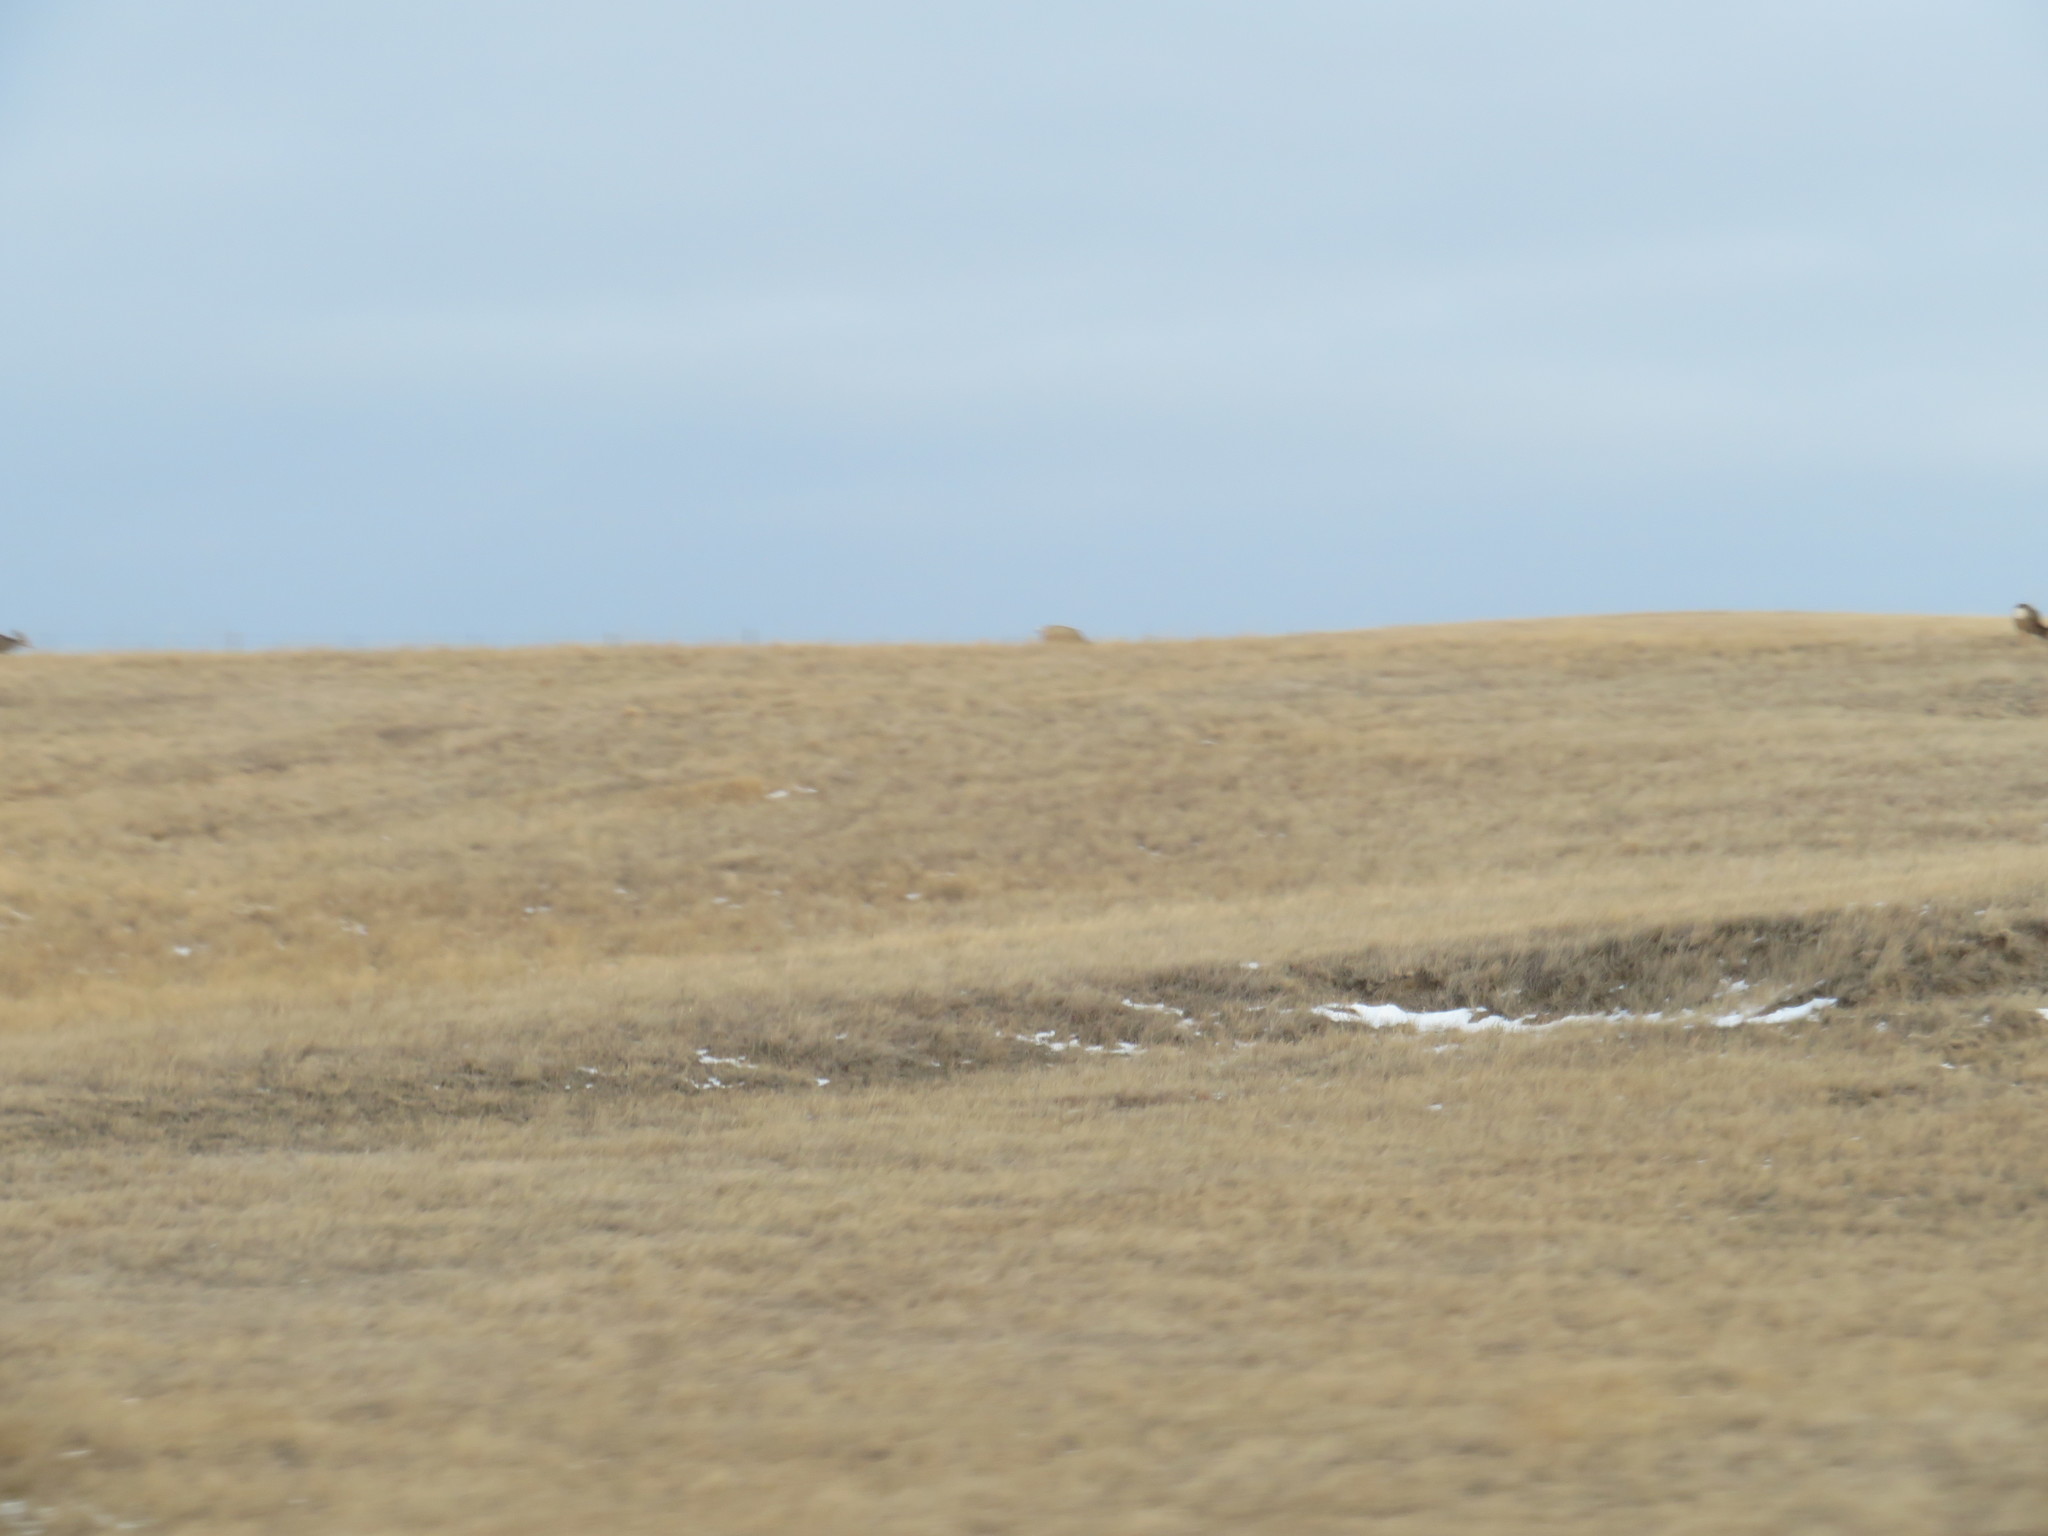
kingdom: Animalia
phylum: Chordata
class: Mammalia
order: Artiodactyla
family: Bovidae
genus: Ovis
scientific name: Ovis canadensis
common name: Bighorn sheep
